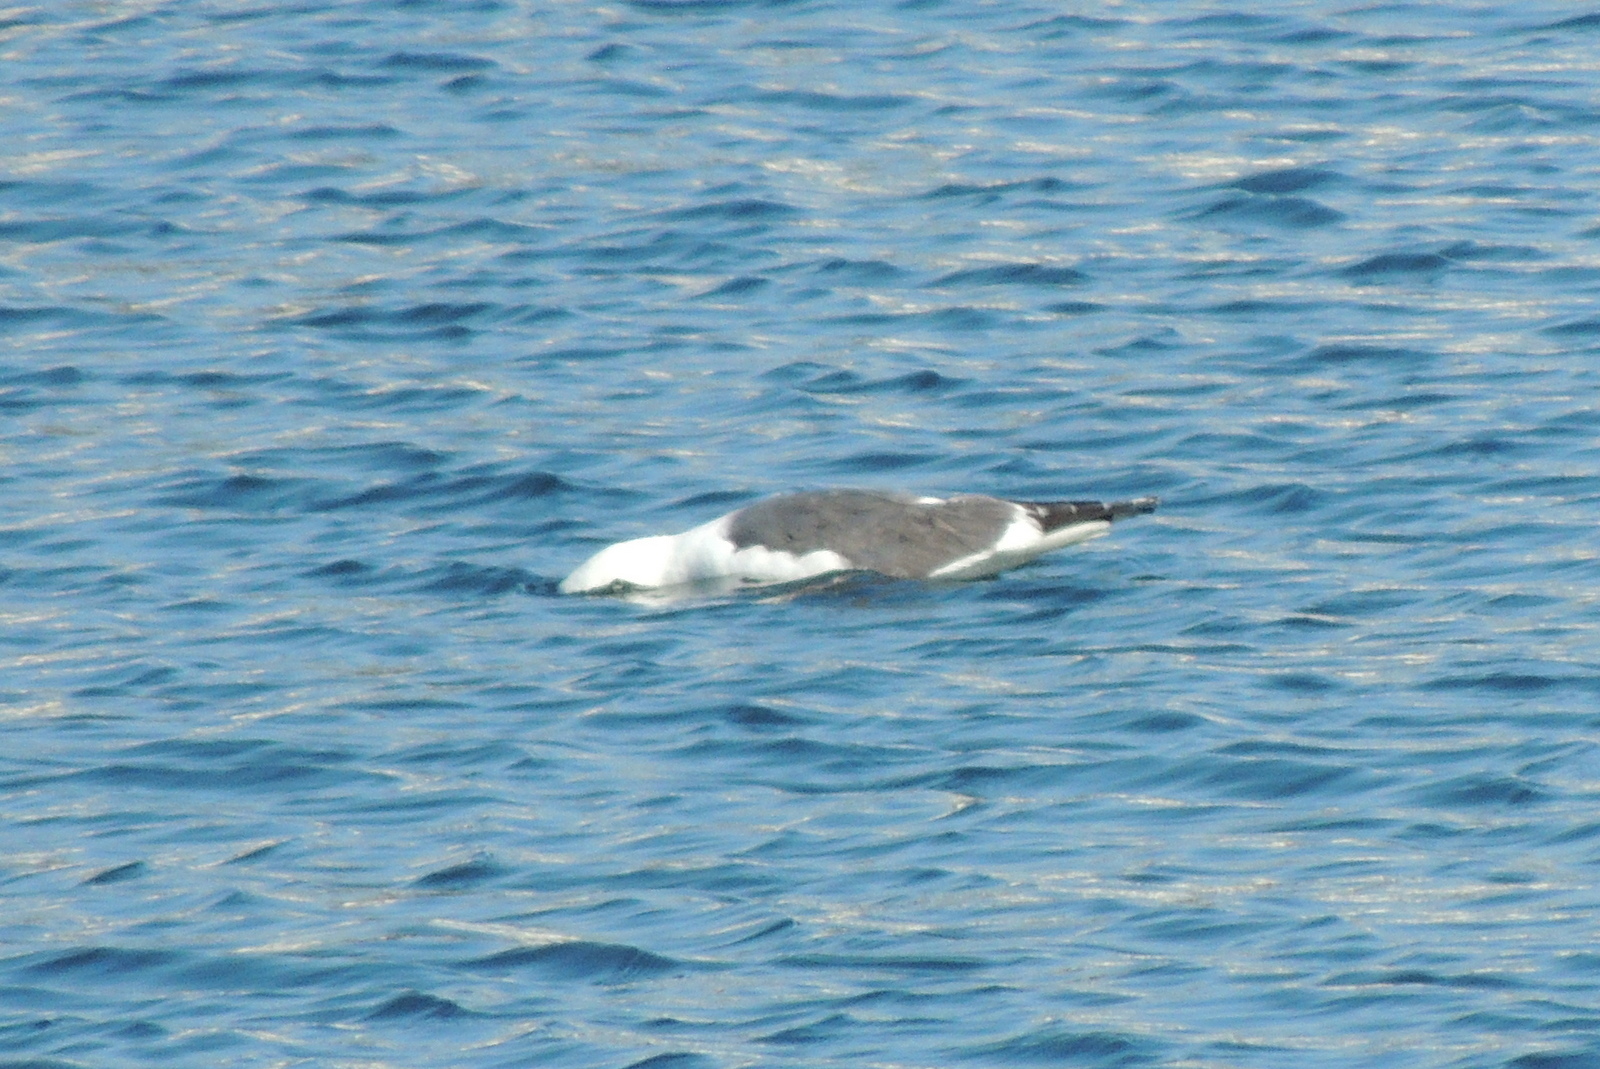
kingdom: Animalia
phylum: Chordata
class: Aves
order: Charadriiformes
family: Laridae
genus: Larus
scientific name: Larus occidentalis
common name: Western gull
